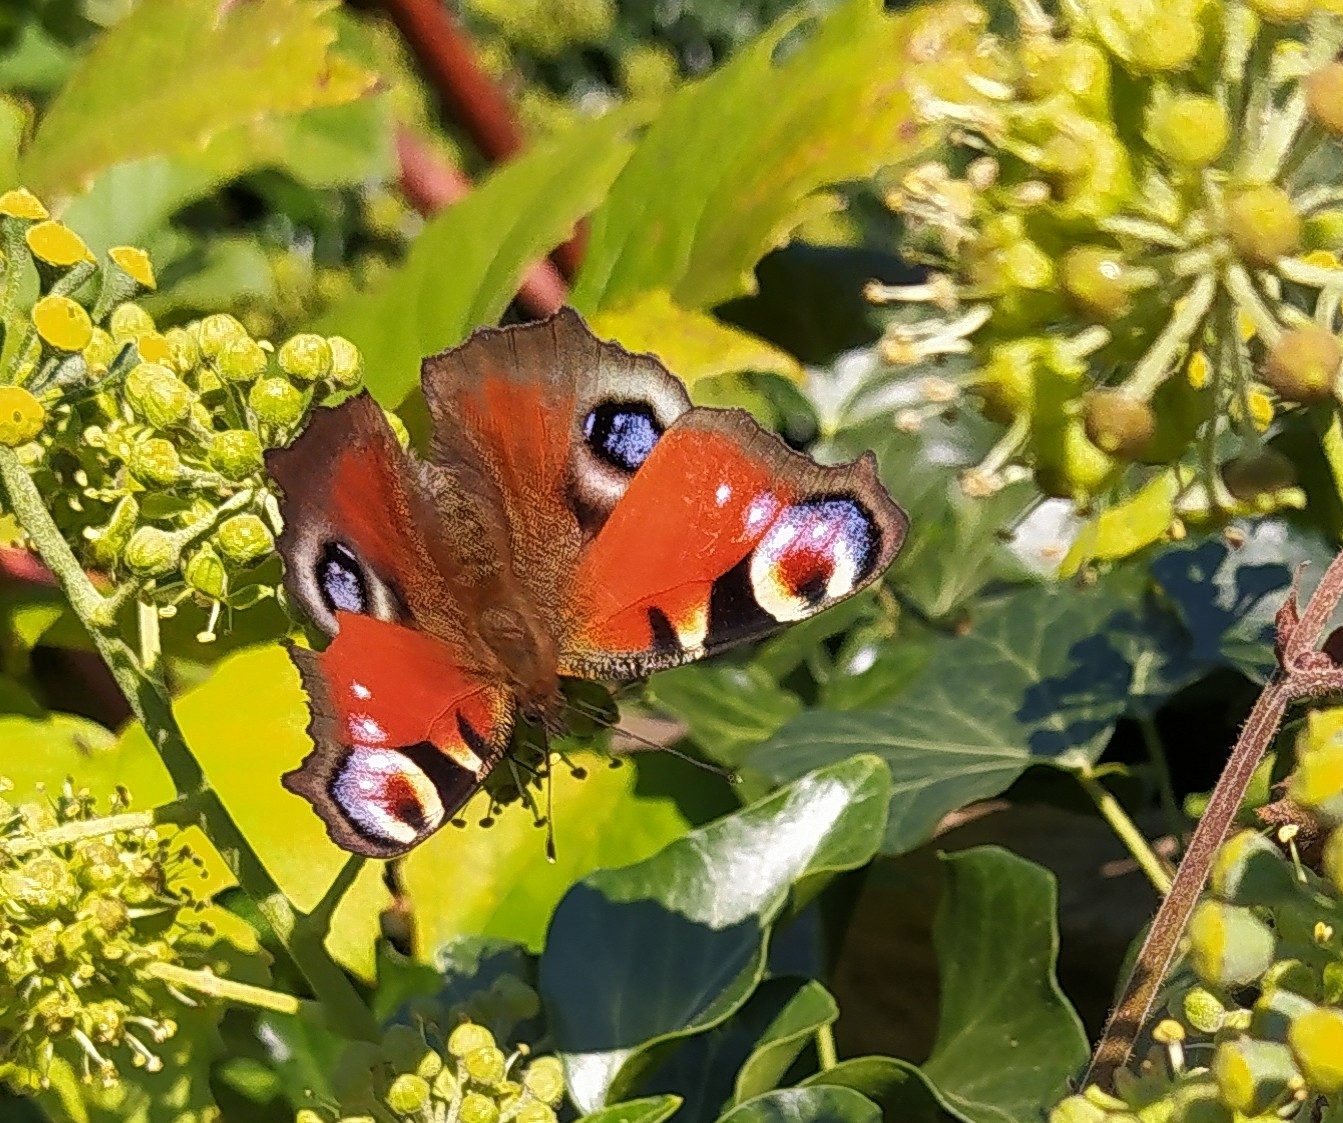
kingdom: Animalia
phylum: Arthropoda
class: Insecta
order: Lepidoptera
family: Nymphalidae
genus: Aglais
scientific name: Aglais io
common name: Peacock
